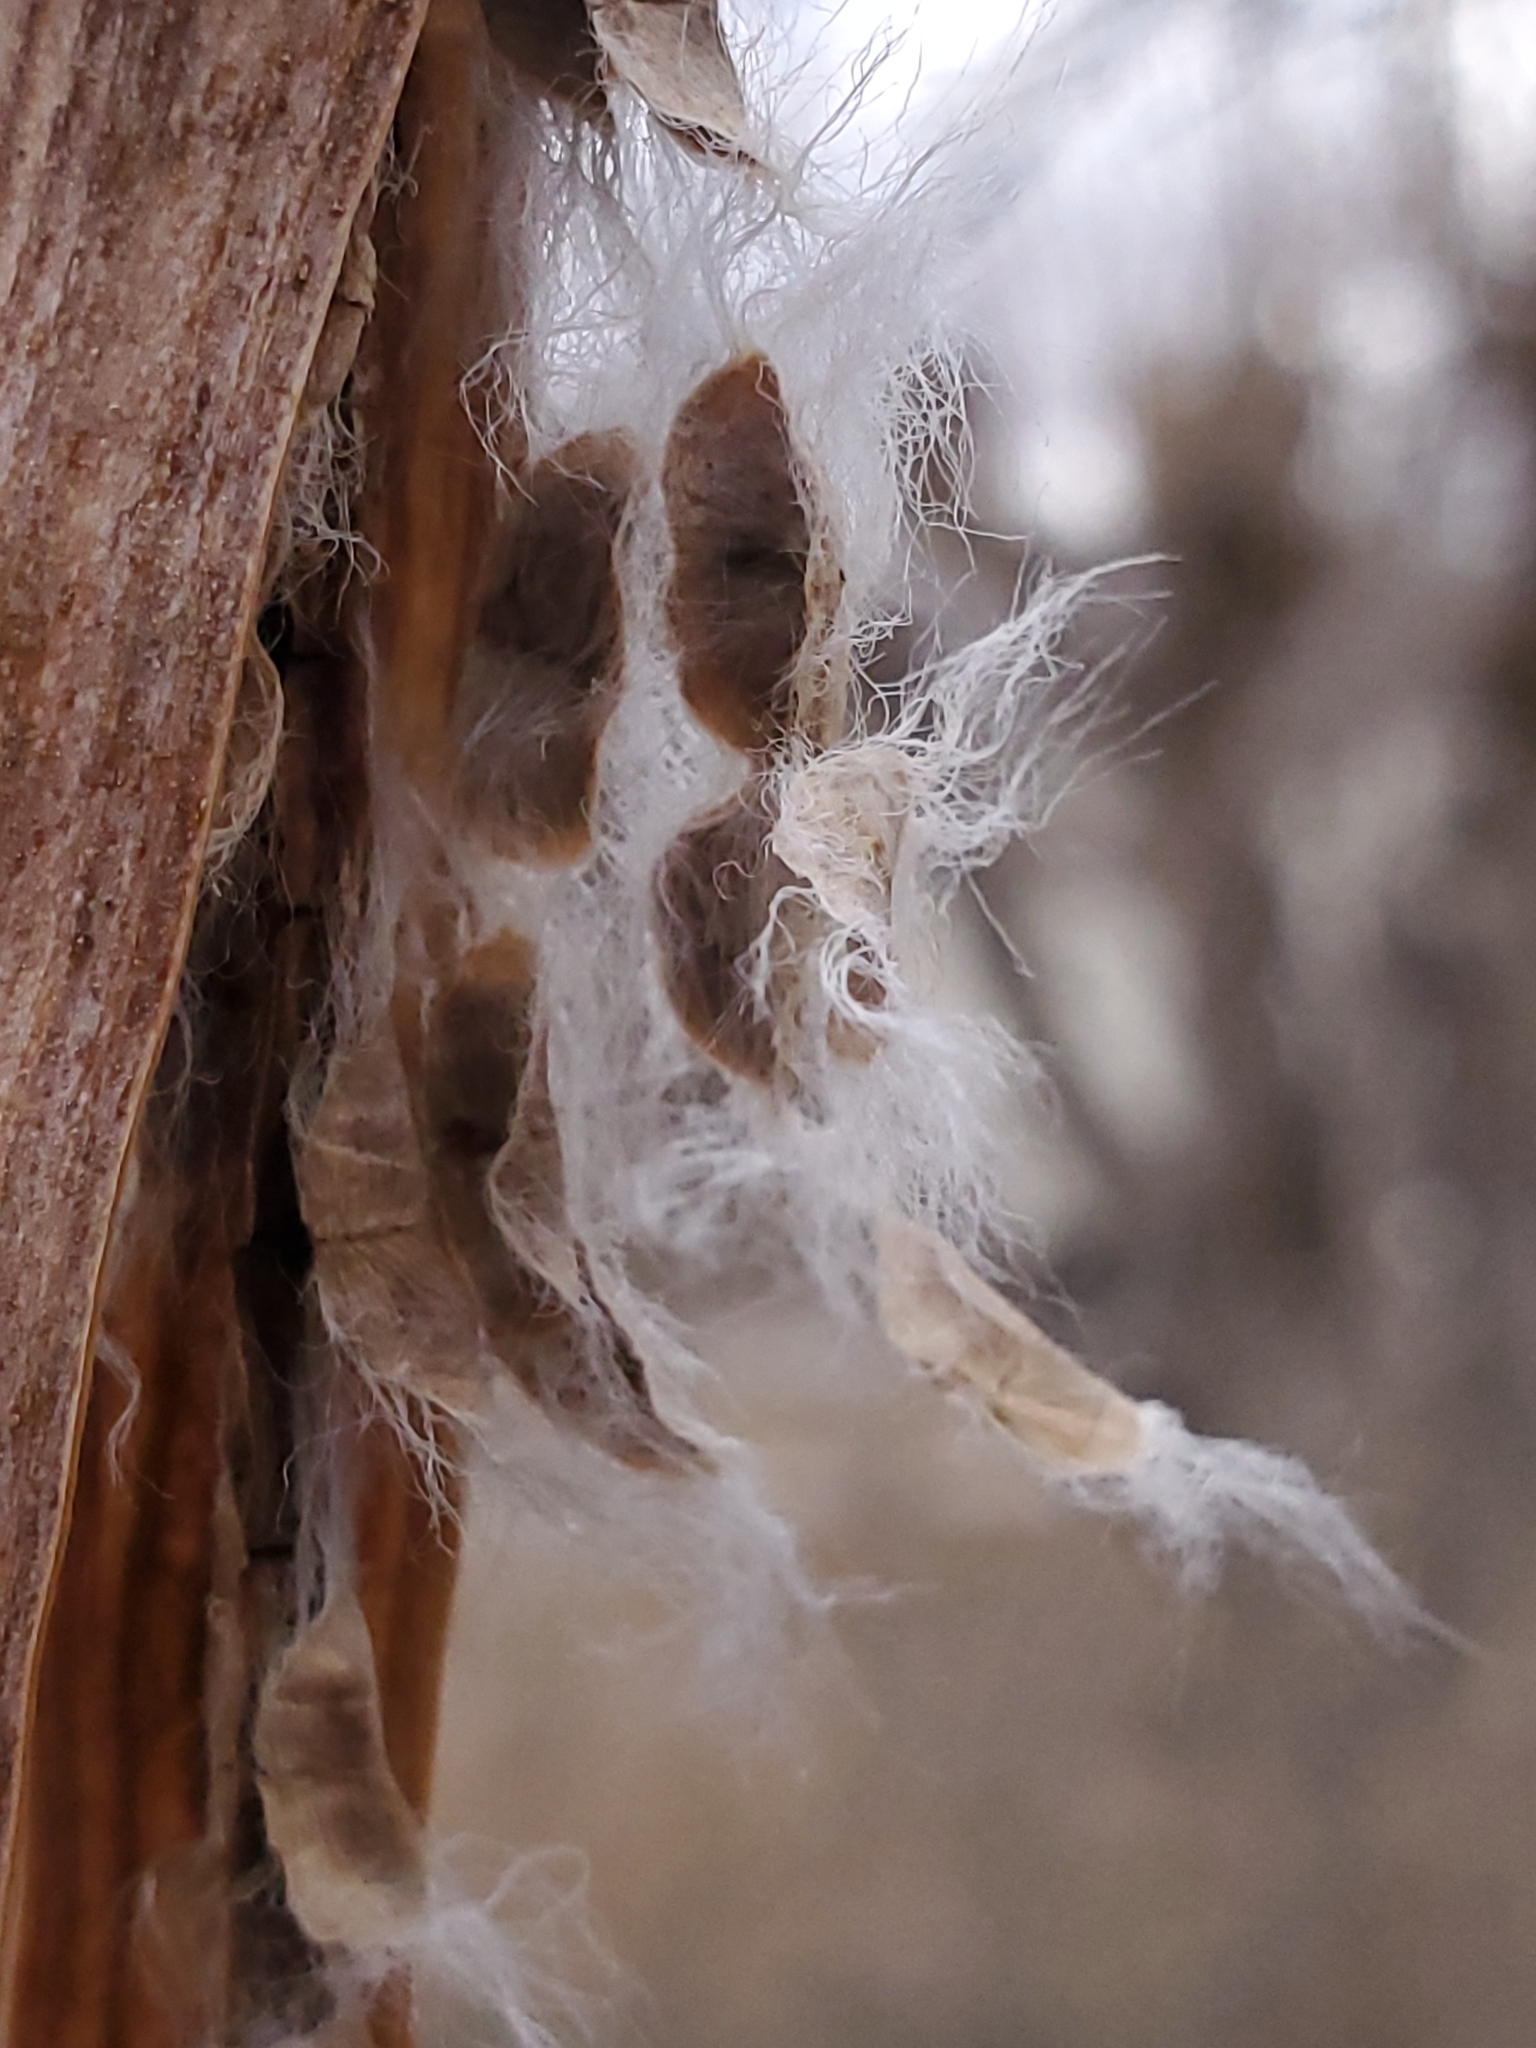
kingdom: Plantae
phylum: Tracheophyta
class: Magnoliopsida
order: Lamiales
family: Bignoniaceae
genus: Chilopsis
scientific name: Chilopsis linearis
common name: Desert-willow
